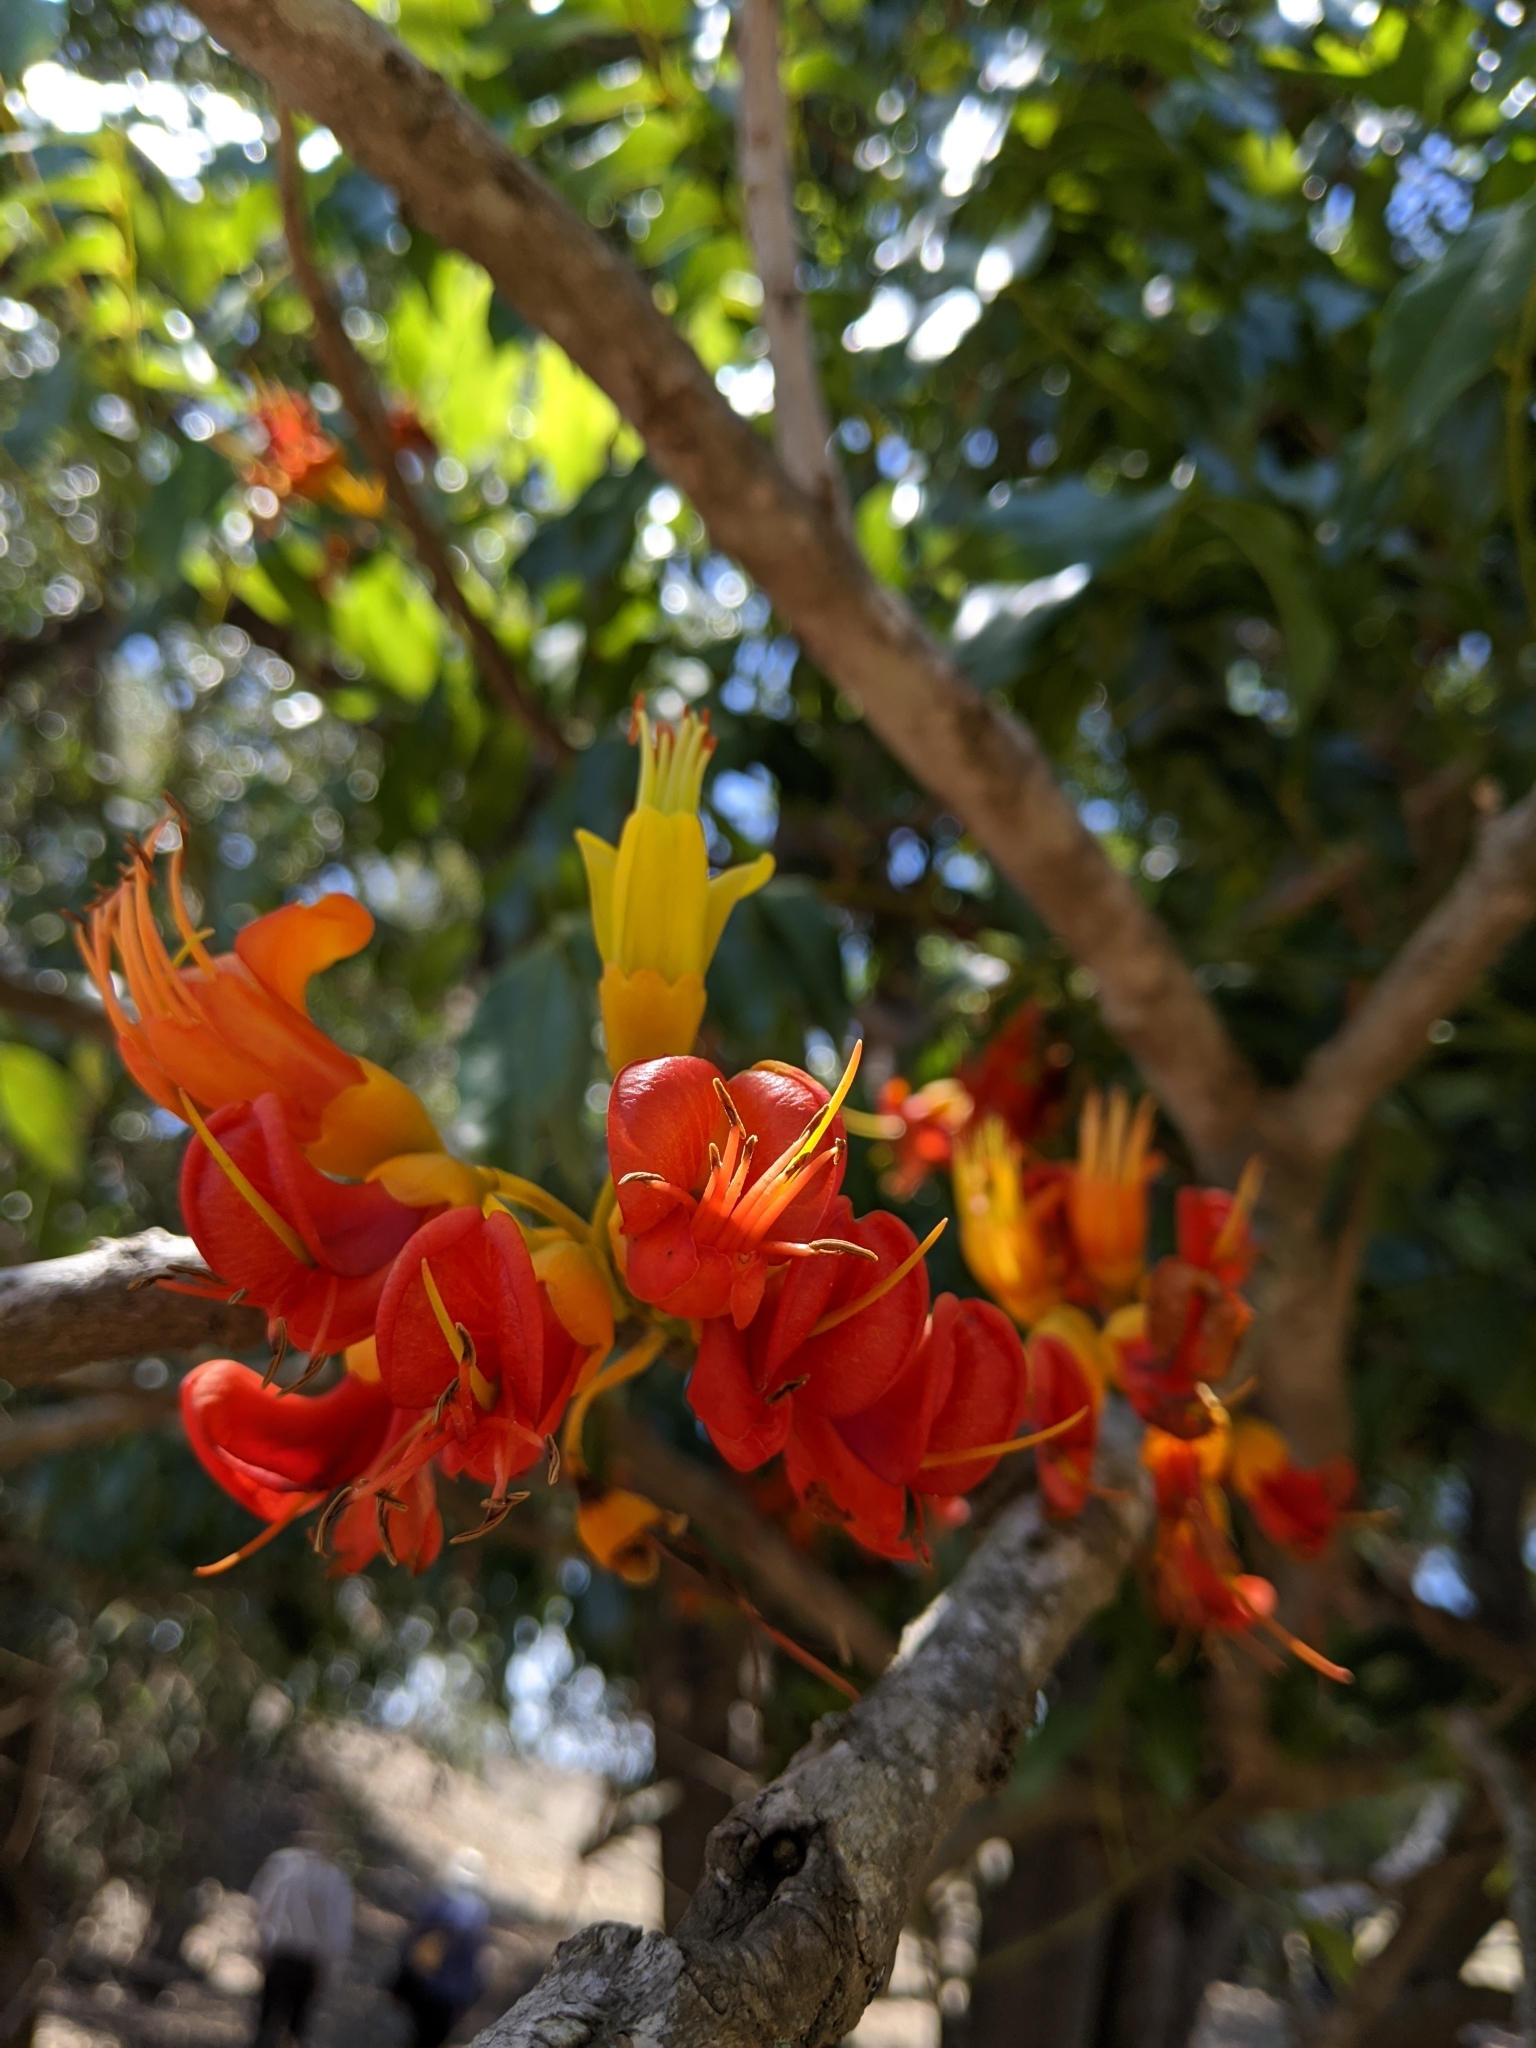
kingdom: Plantae
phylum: Tracheophyta
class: Magnoliopsida
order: Fabales
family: Fabaceae
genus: Castanospermum
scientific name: Castanospermum australe
